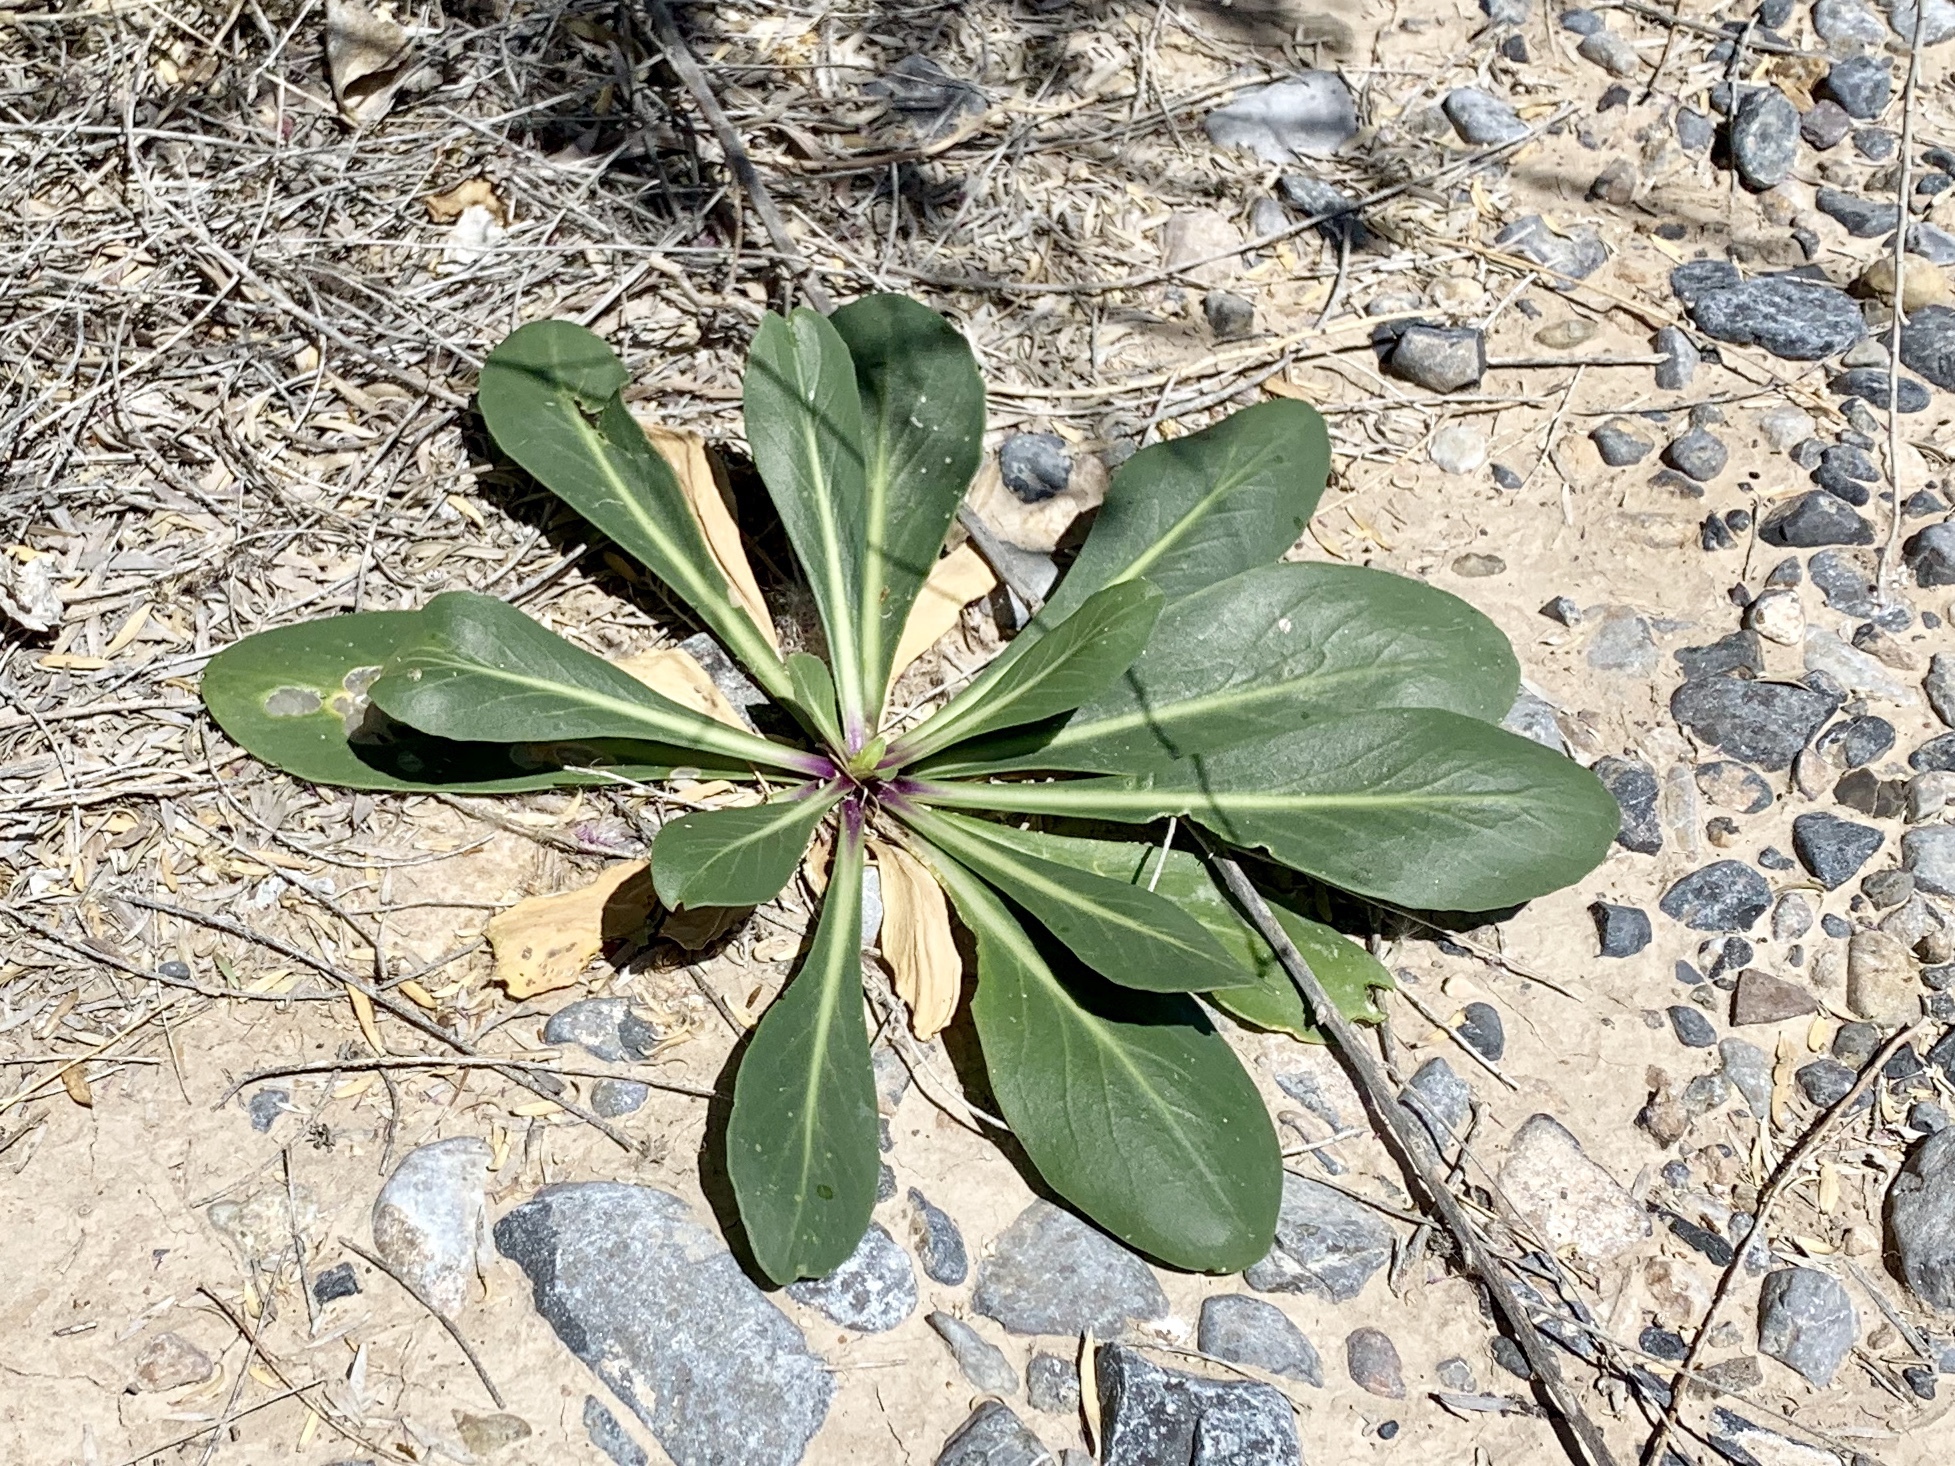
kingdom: Plantae
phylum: Tracheophyta
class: Magnoliopsida
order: Myrtales
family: Onagraceae
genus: Oenothera
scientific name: Oenothera longissima
